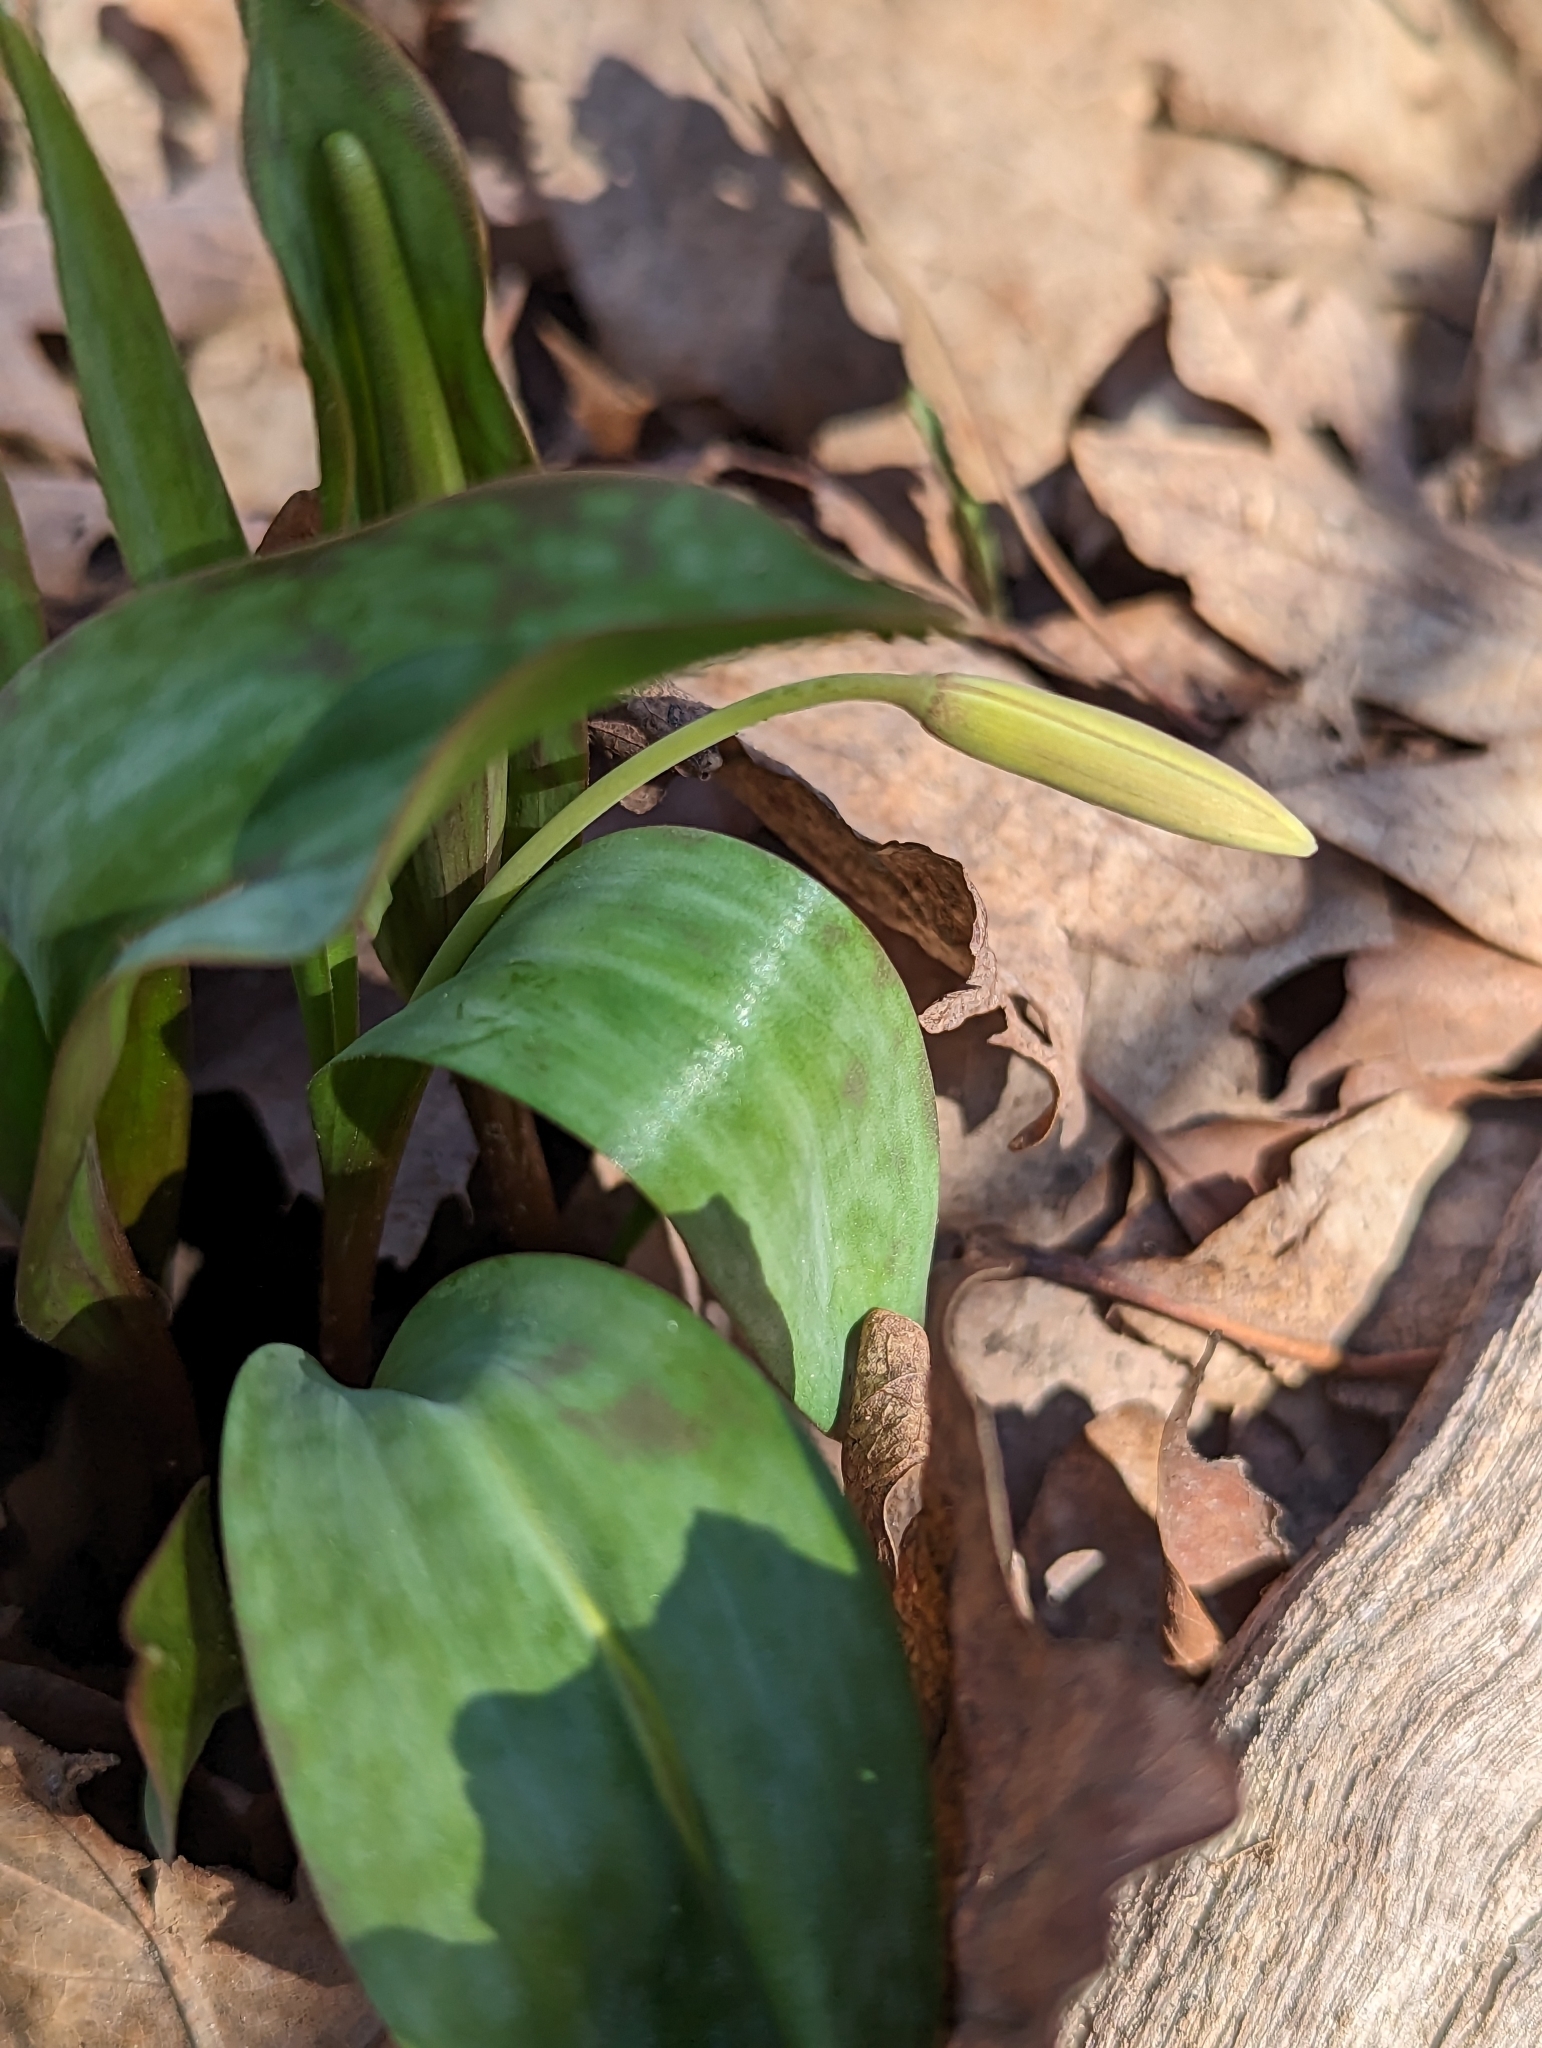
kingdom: Plantae
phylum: Tracheophyta
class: Liliopsida
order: Liliales
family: Liliaceae
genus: Erythronium
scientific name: Erythronium americanum
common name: Yellow adder's-tongue
